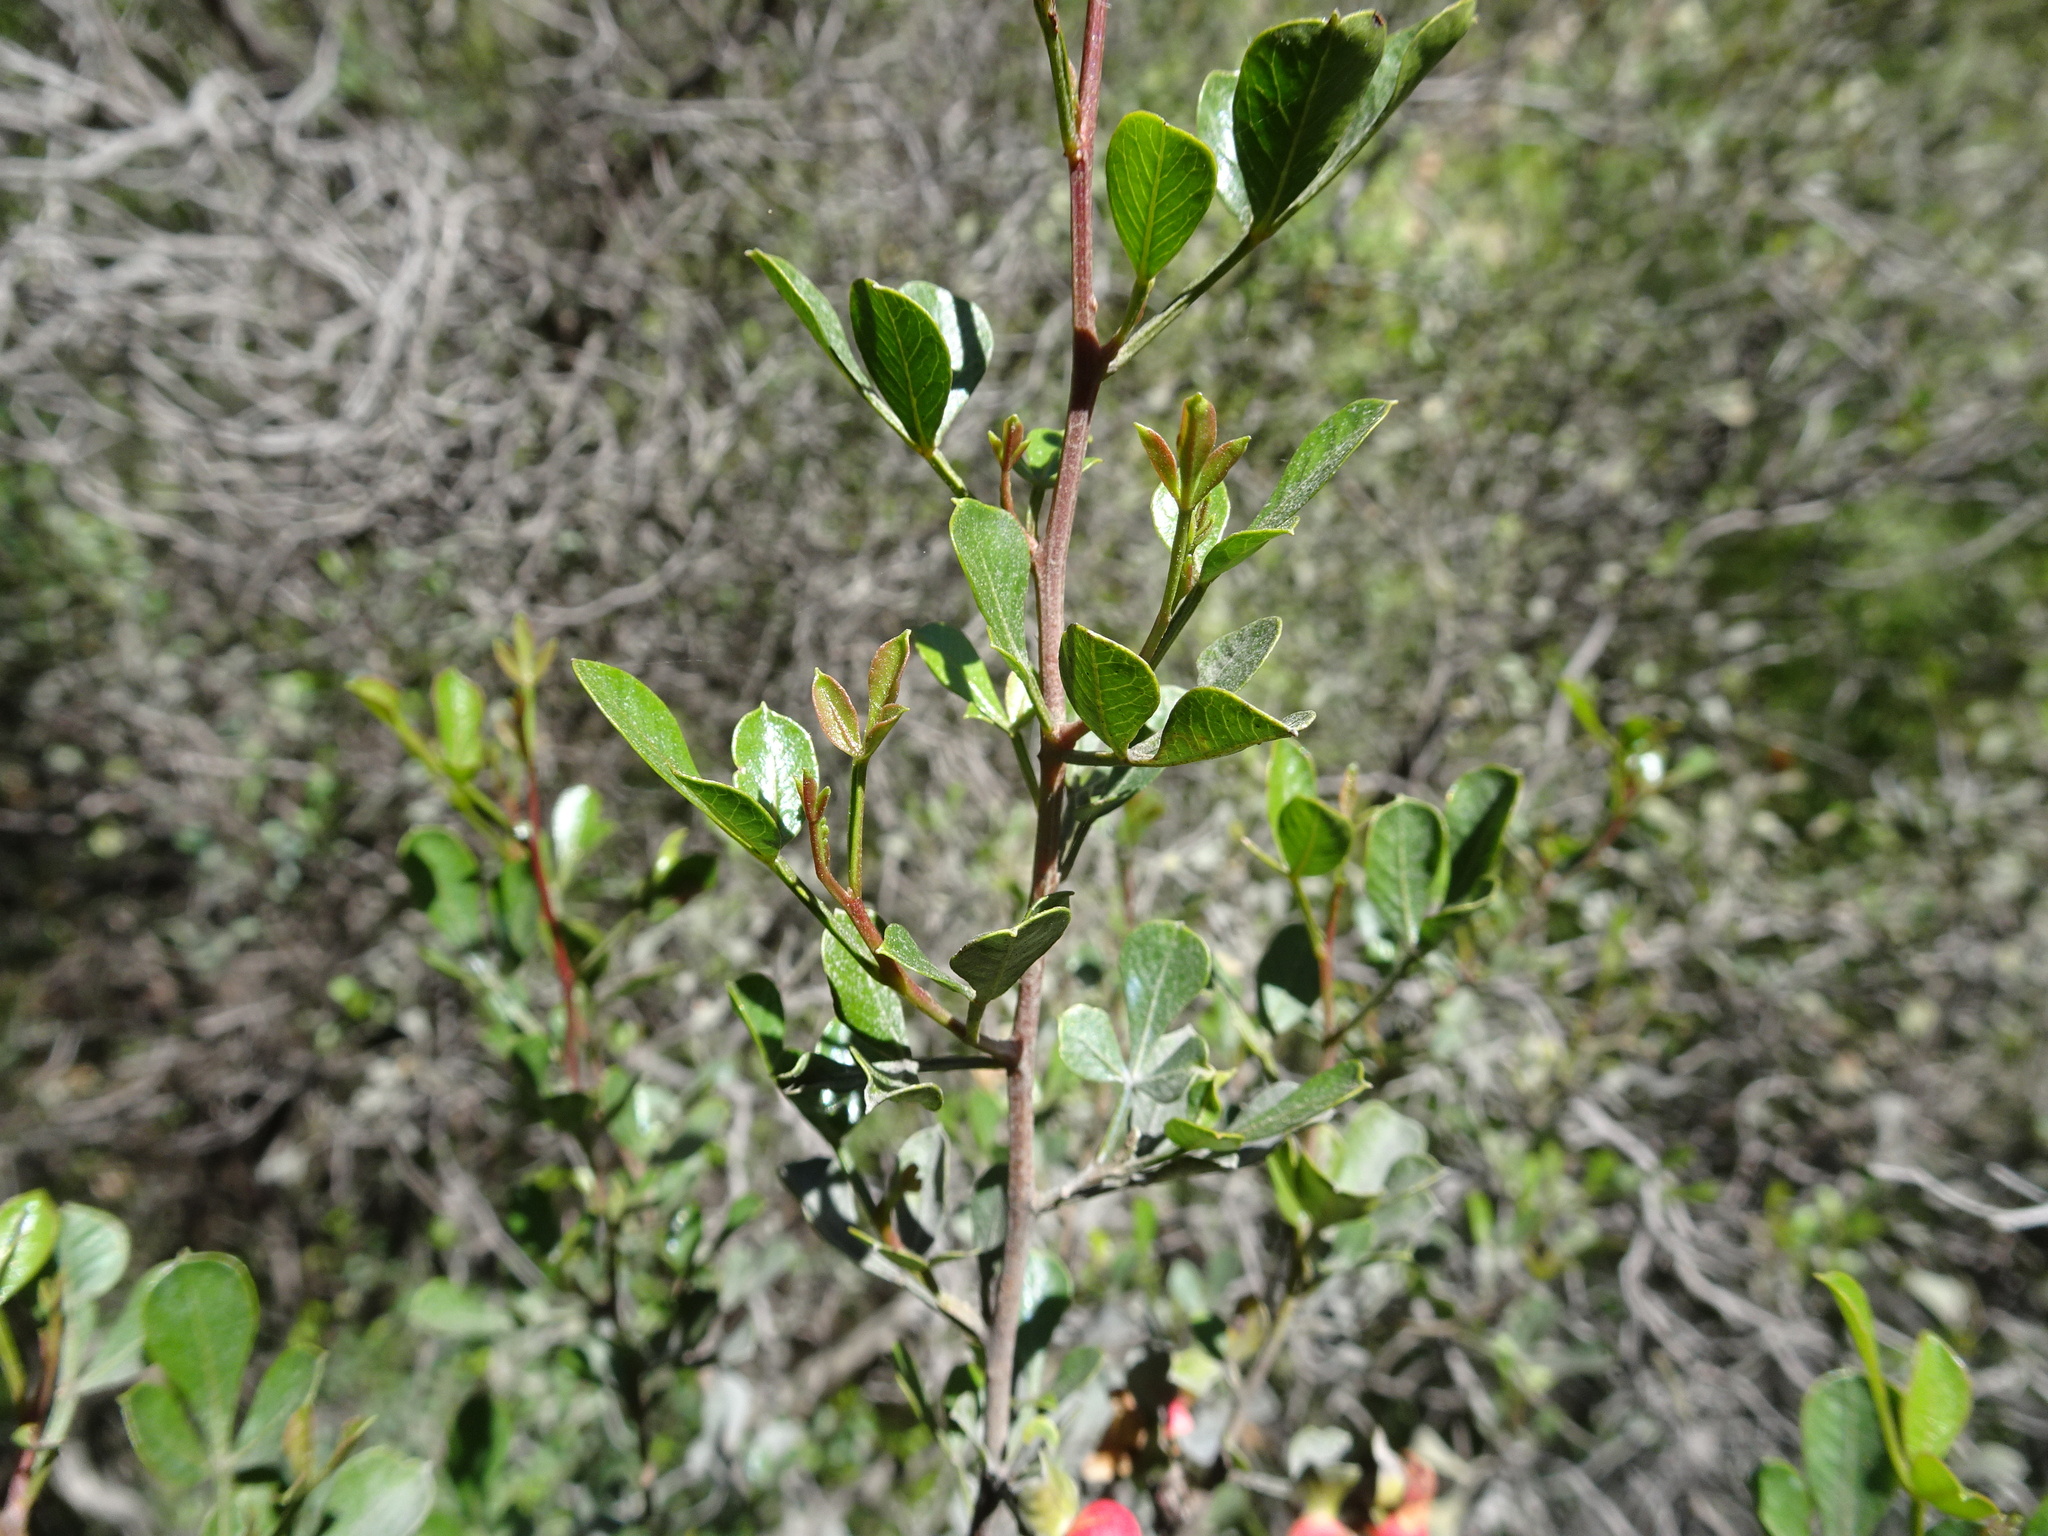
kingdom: Plantae
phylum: Tracheophyta
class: Magnoliopsida
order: Sapindales
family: Anacardiaceae
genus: Searsia
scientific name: Searsia pallens
